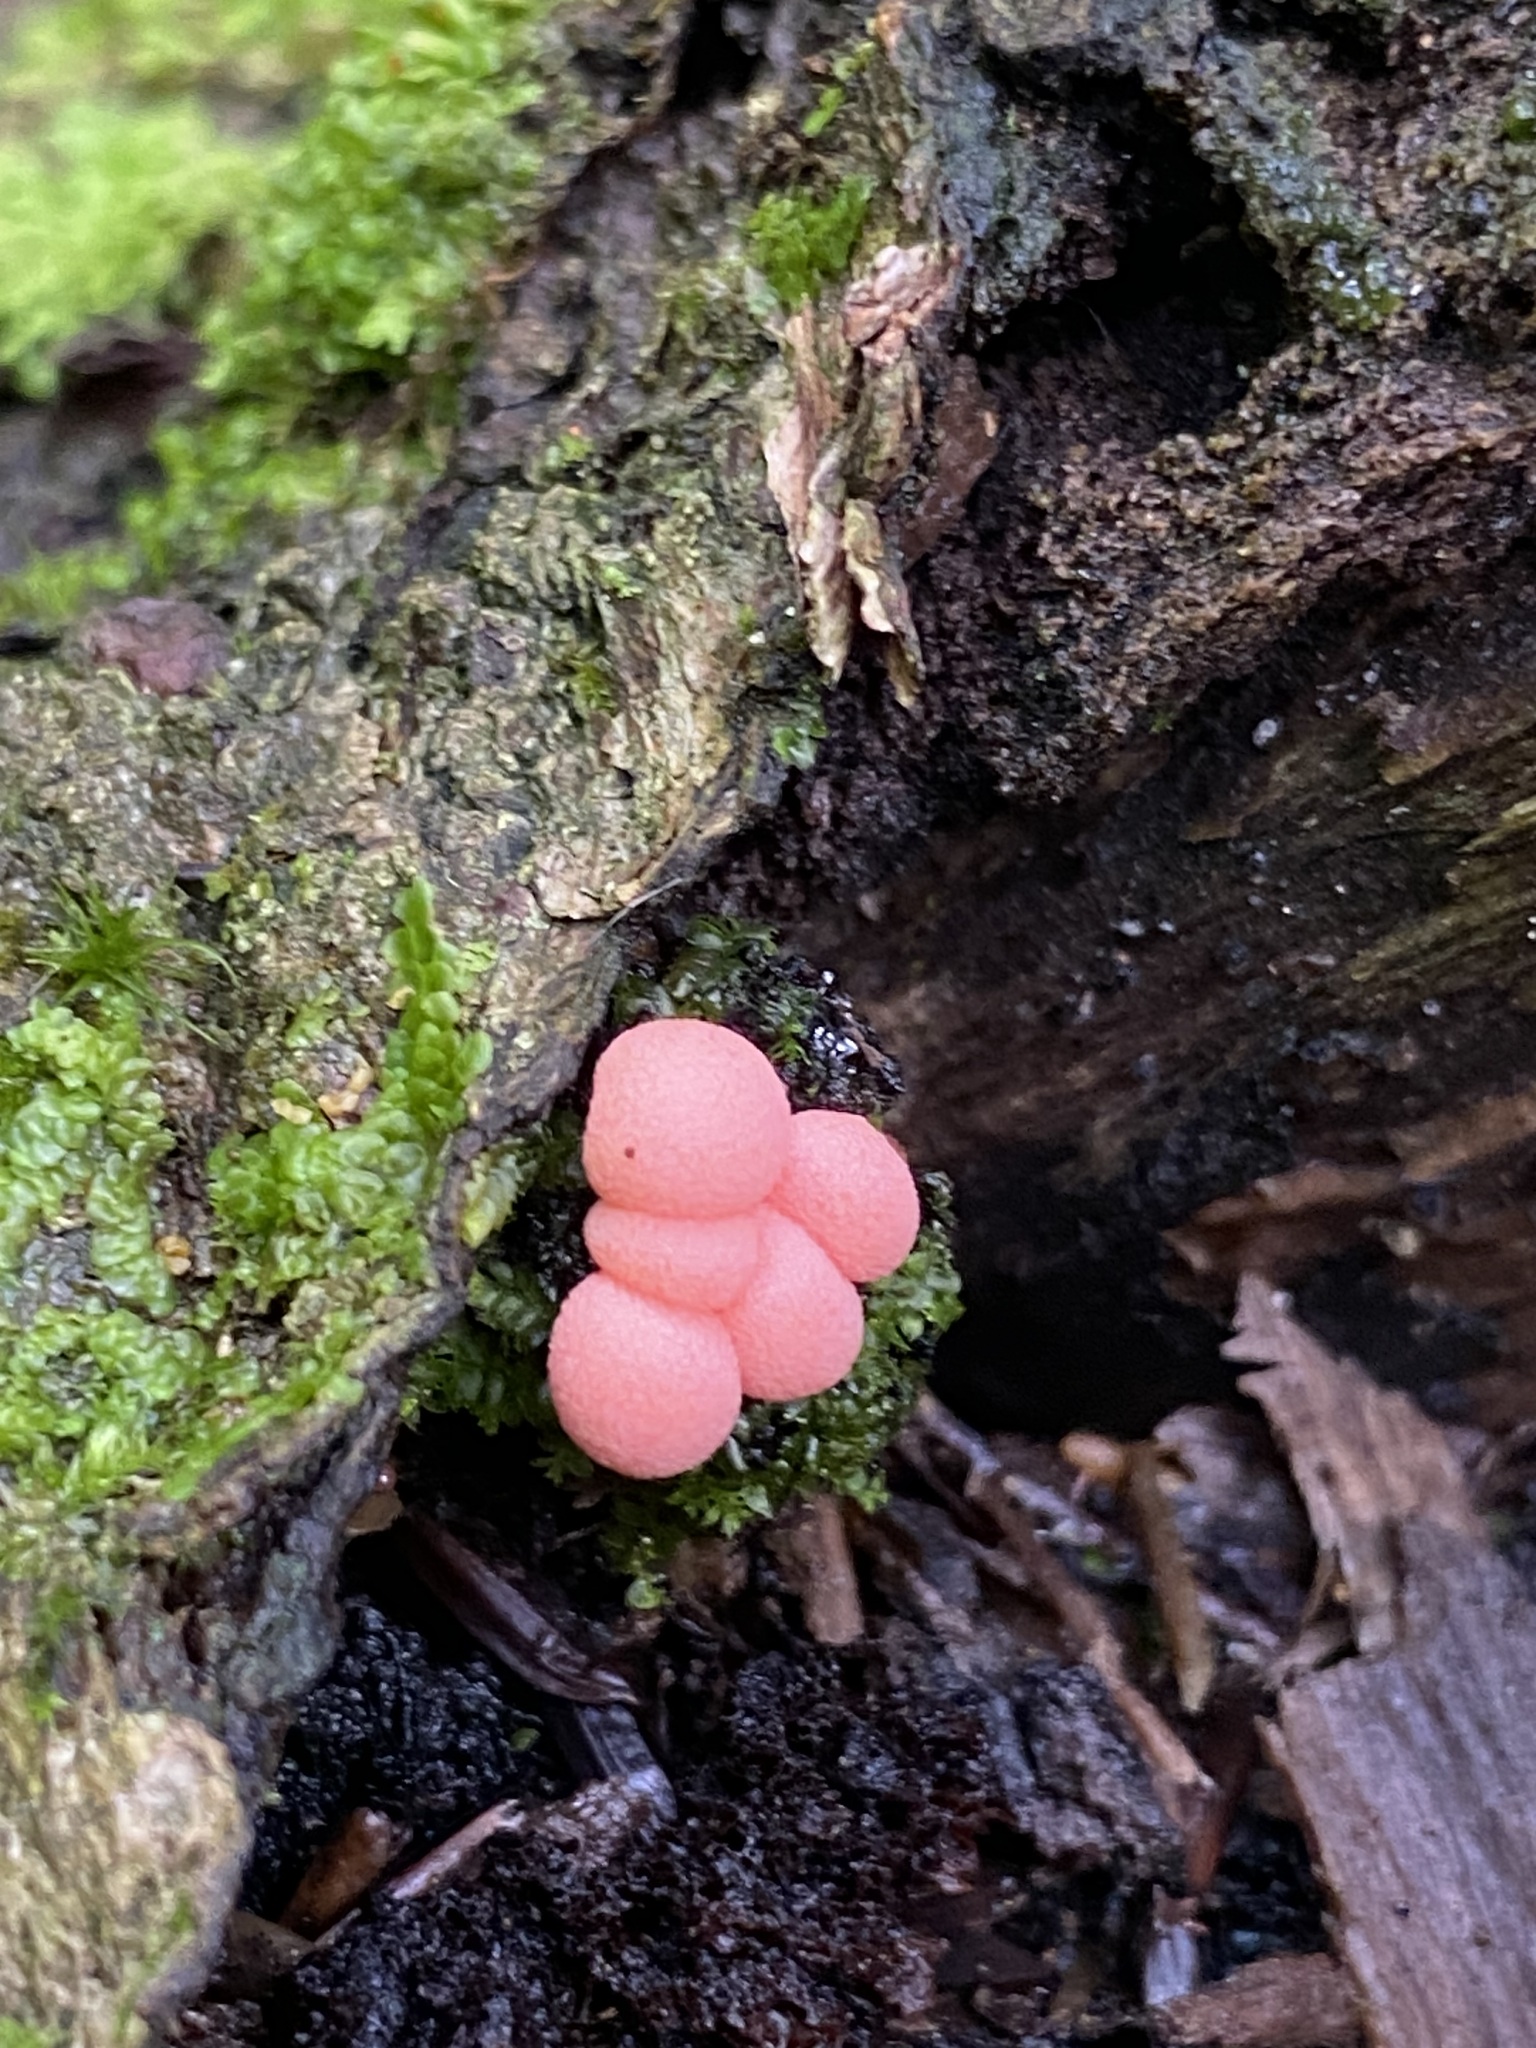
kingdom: Protozoa
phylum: Mycetozoa
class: Myxomycetes
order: Cribrariales
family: Tubiferaceae
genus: Lycogala
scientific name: Lycogala epidendrum
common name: Wolf's milk
